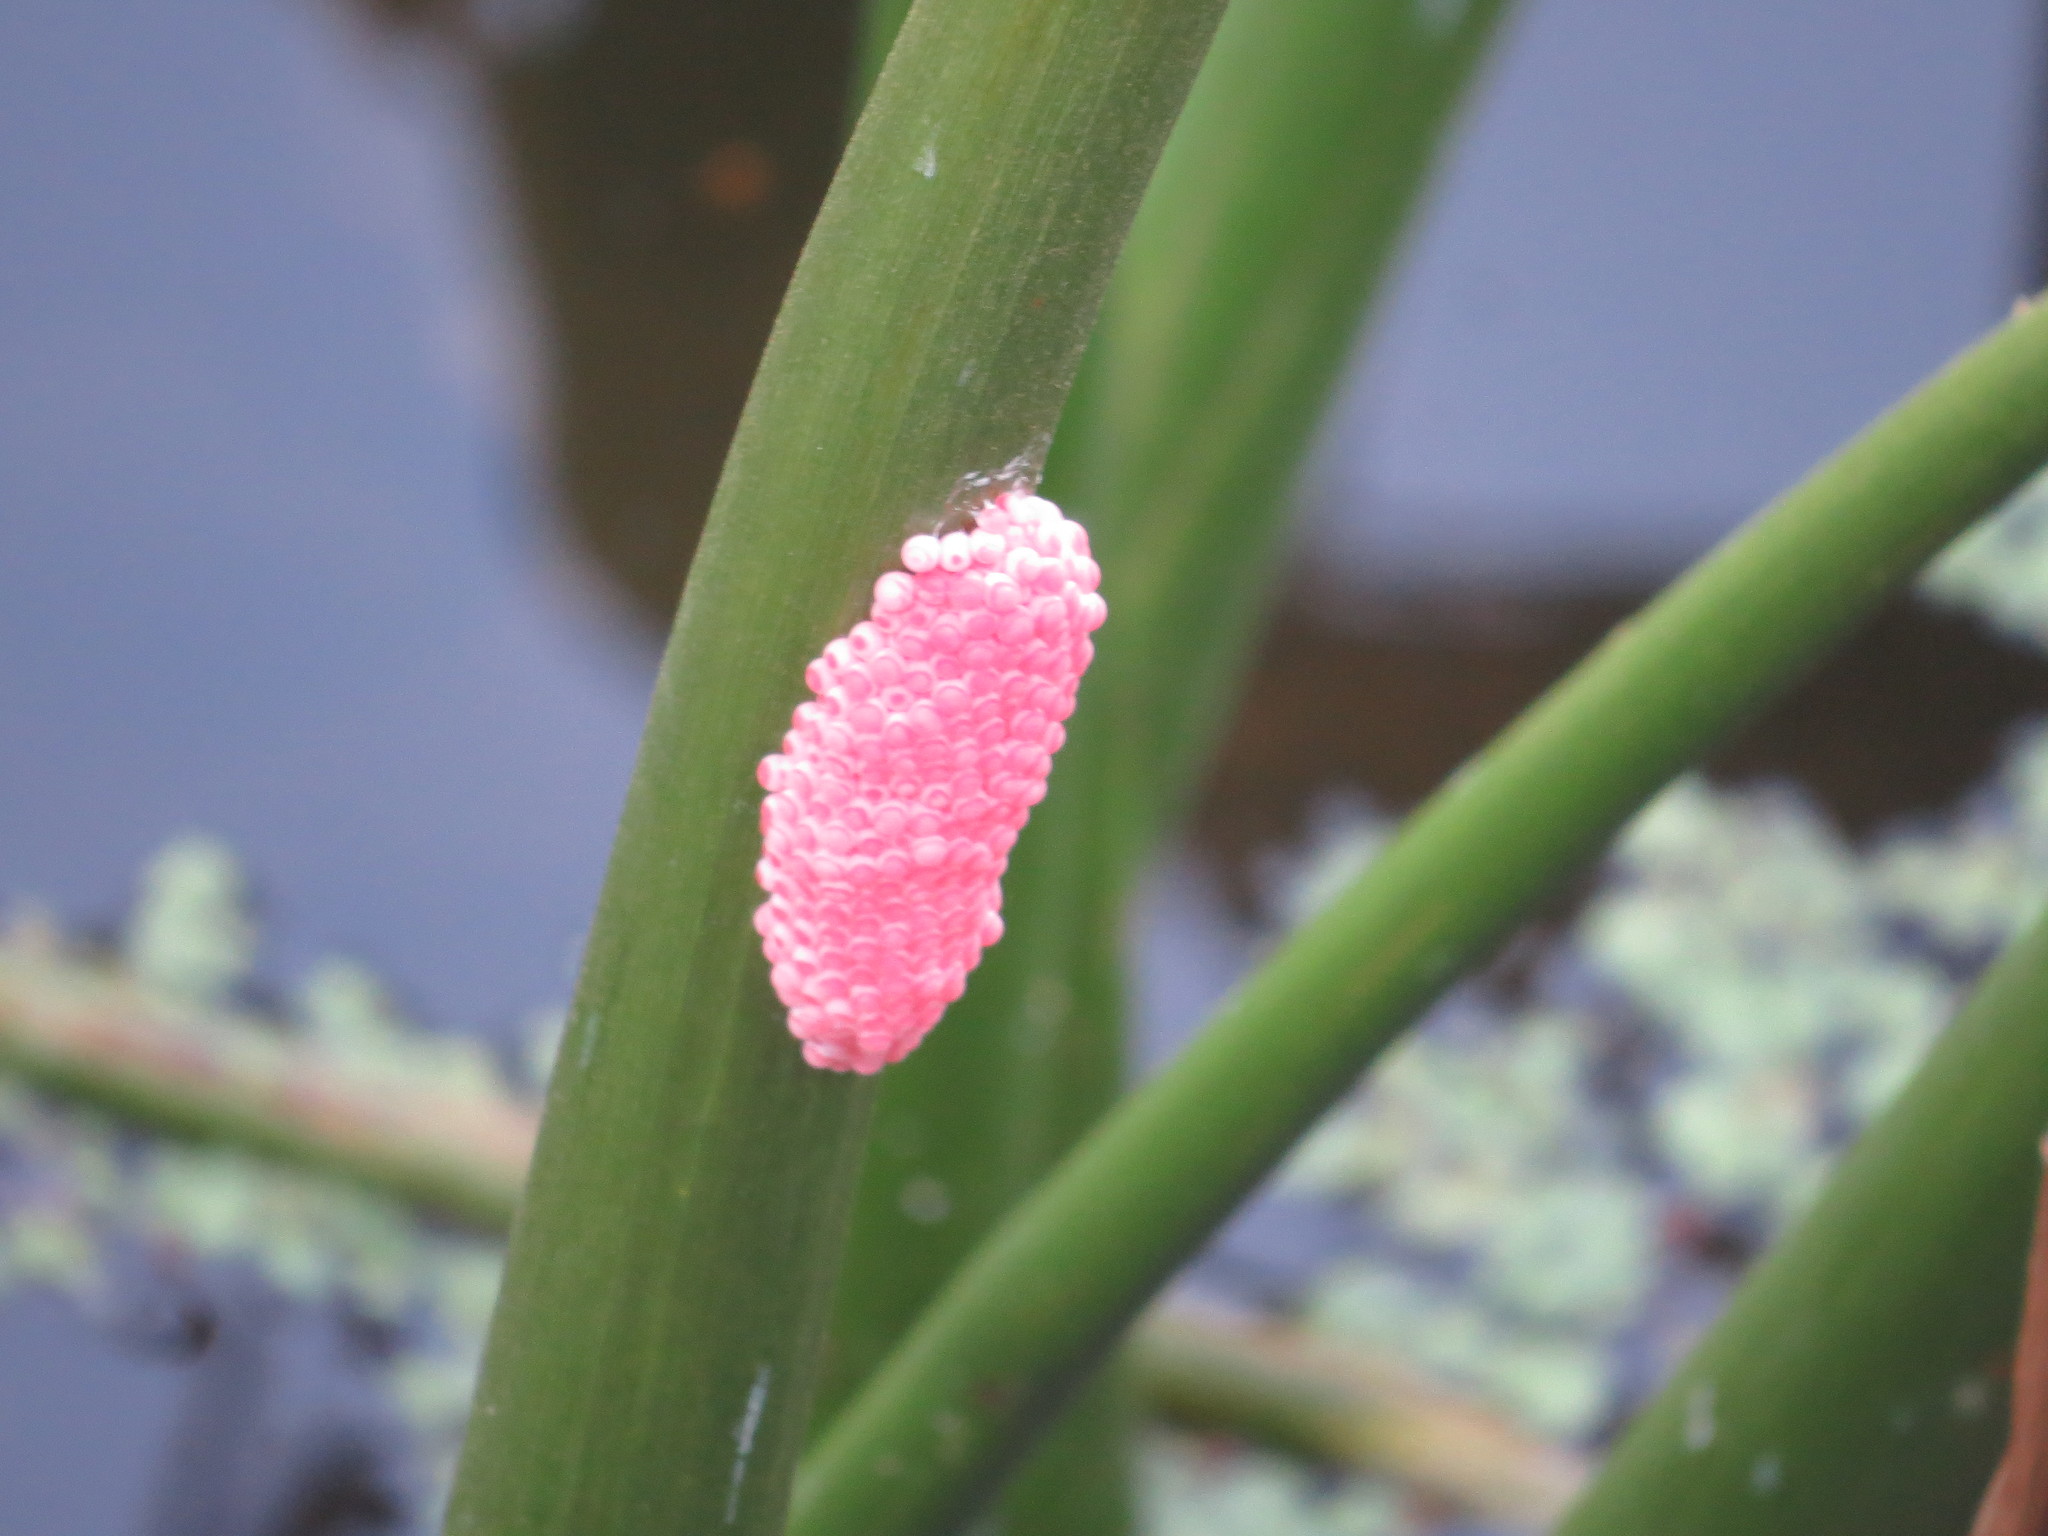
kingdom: Animalia
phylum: Mollusca
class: Gastropoda
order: Architaenioglossa
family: Ampullariidae
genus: Pomacea
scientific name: Pomacea canaliculata
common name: Channeled applesnail
